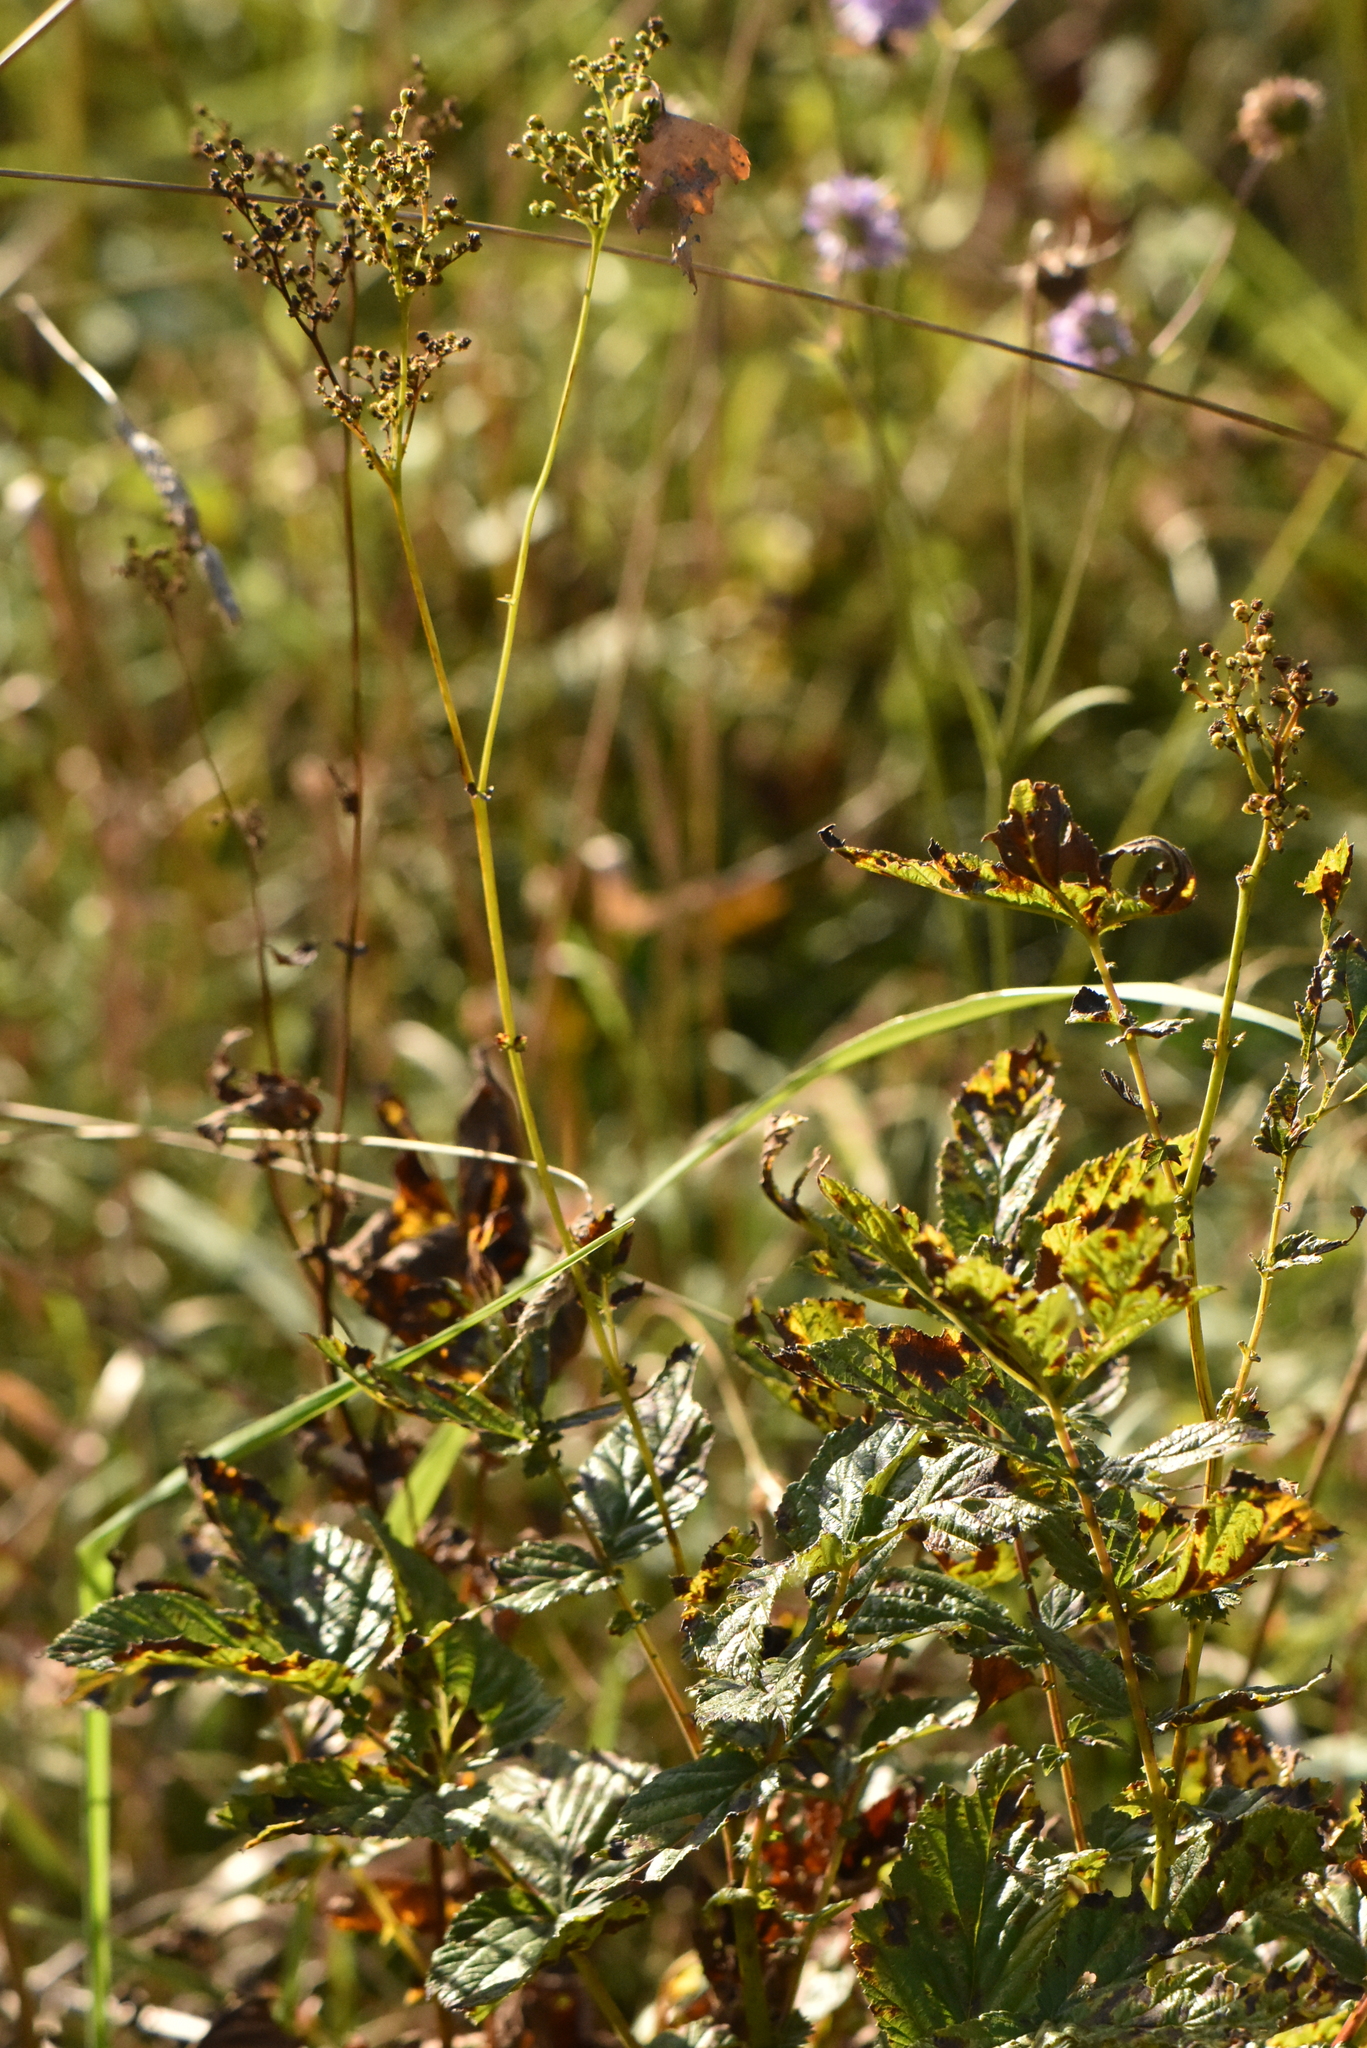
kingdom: Plantae
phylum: Tracheophyta
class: Magnoliopsida
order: Rosales
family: Rosaceae
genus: Filipendula
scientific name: Filipendula ulmaria
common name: Meadowsweet
